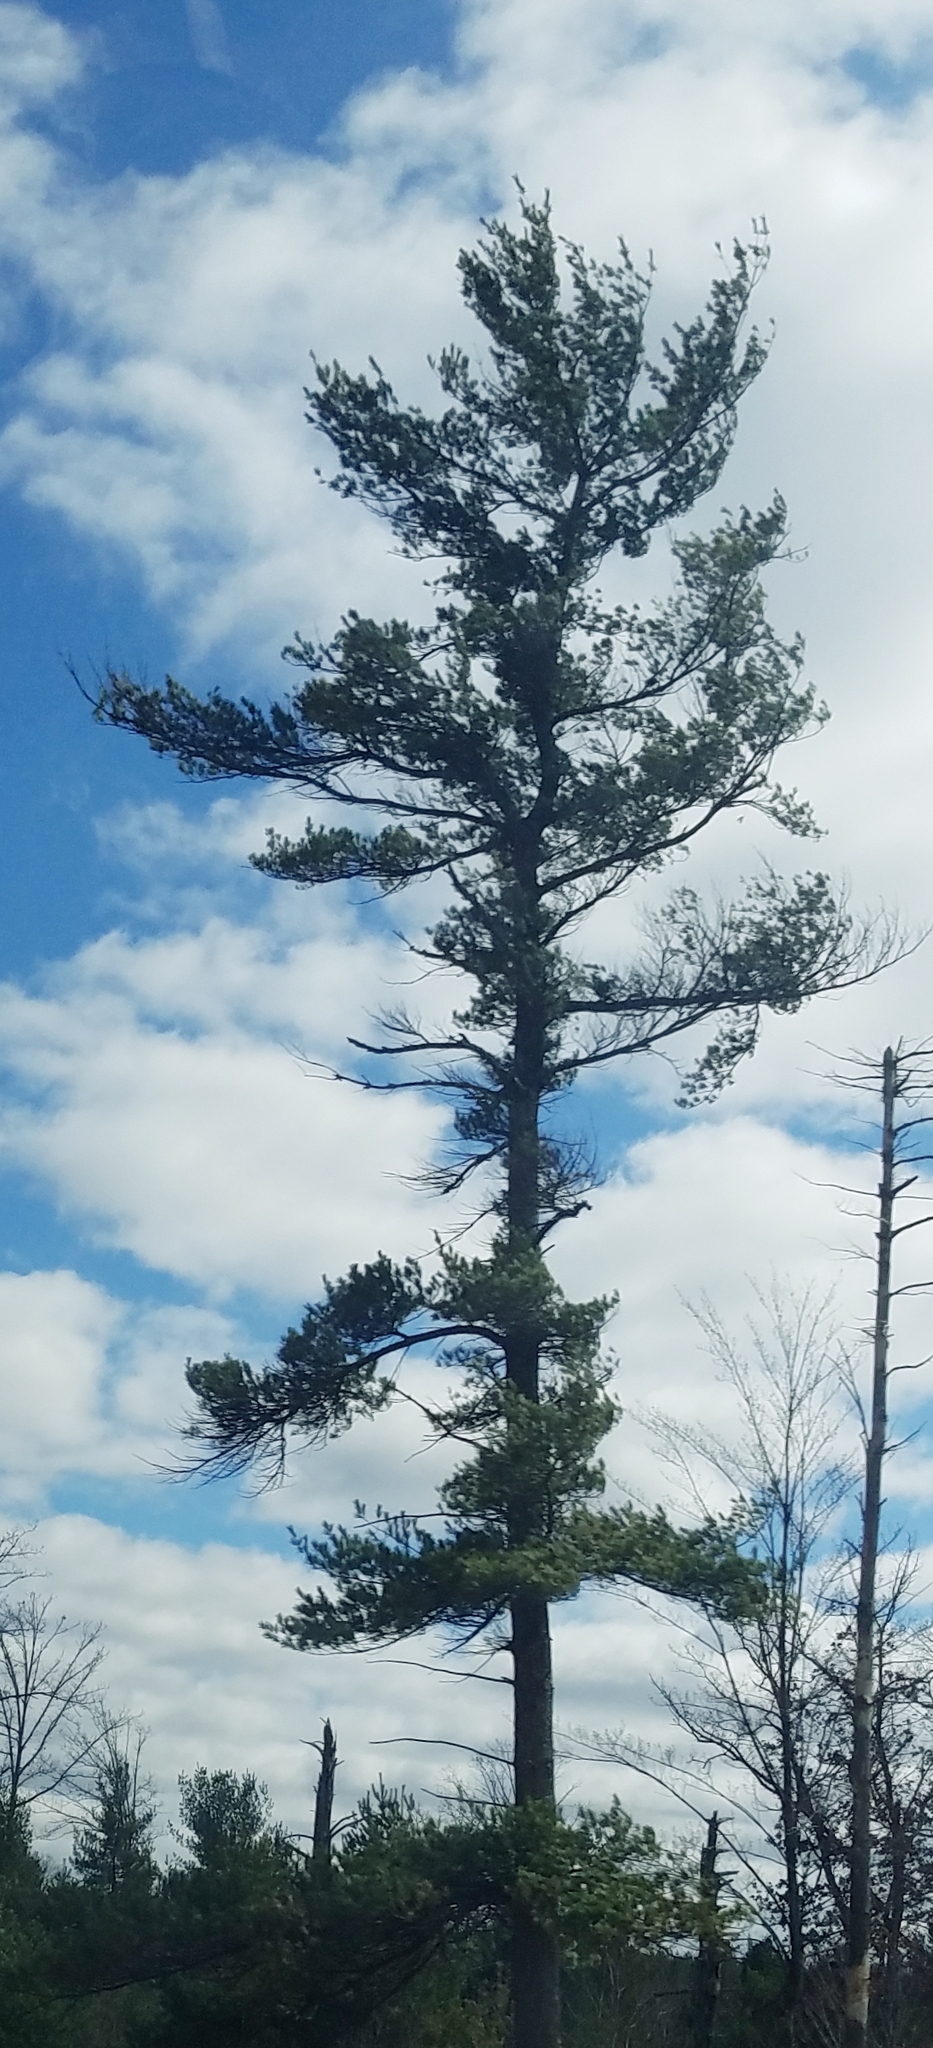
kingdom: Plantae
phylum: Tracheophyta
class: Pinopsida
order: Pinales
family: Pinaceae
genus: Pinus
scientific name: Pinus strobus
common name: Weymouth pine
